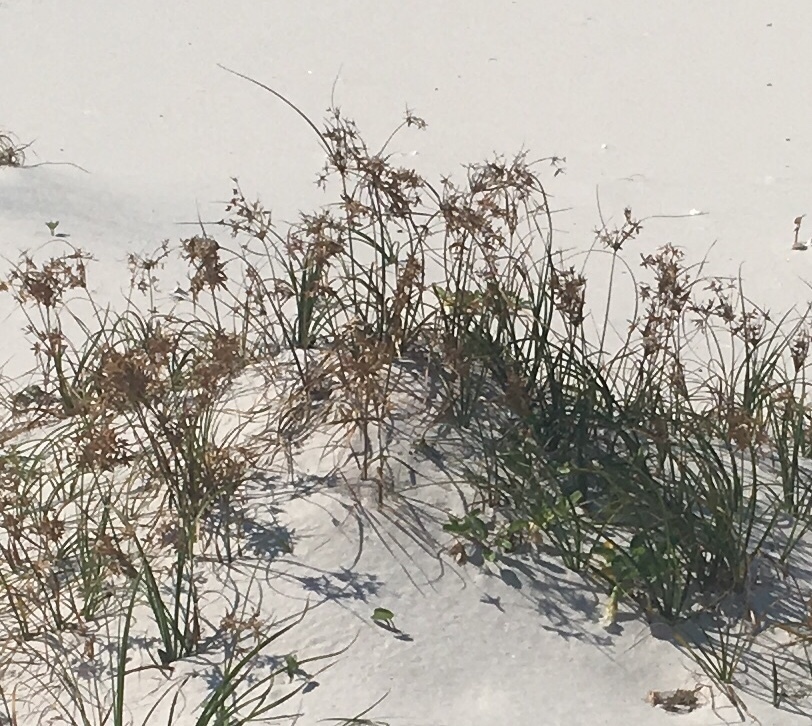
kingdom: Plantae
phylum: Tracheophyta
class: Liliopsida
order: Poales
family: Cyperaceae
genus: Cyperus
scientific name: Cyperus lecontei
